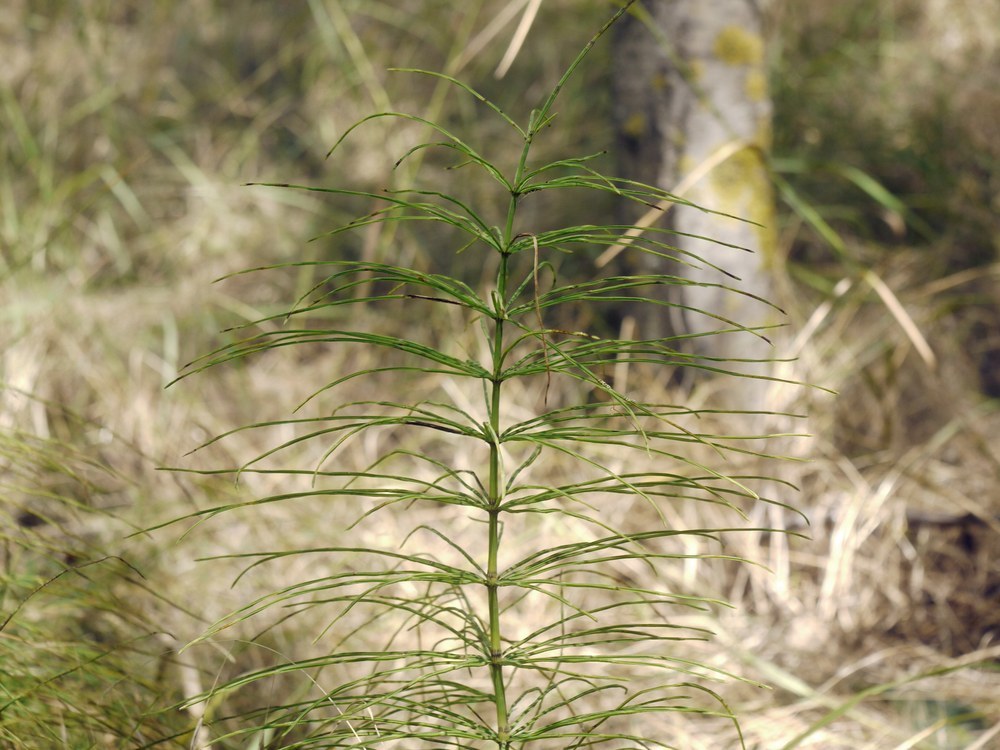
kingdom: Plantae
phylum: Tracheophyta
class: Polypodiopsida
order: Equisetales
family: Equisetaceae
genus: Equisetum
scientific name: Equisetum arvense
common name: Field horsetail
